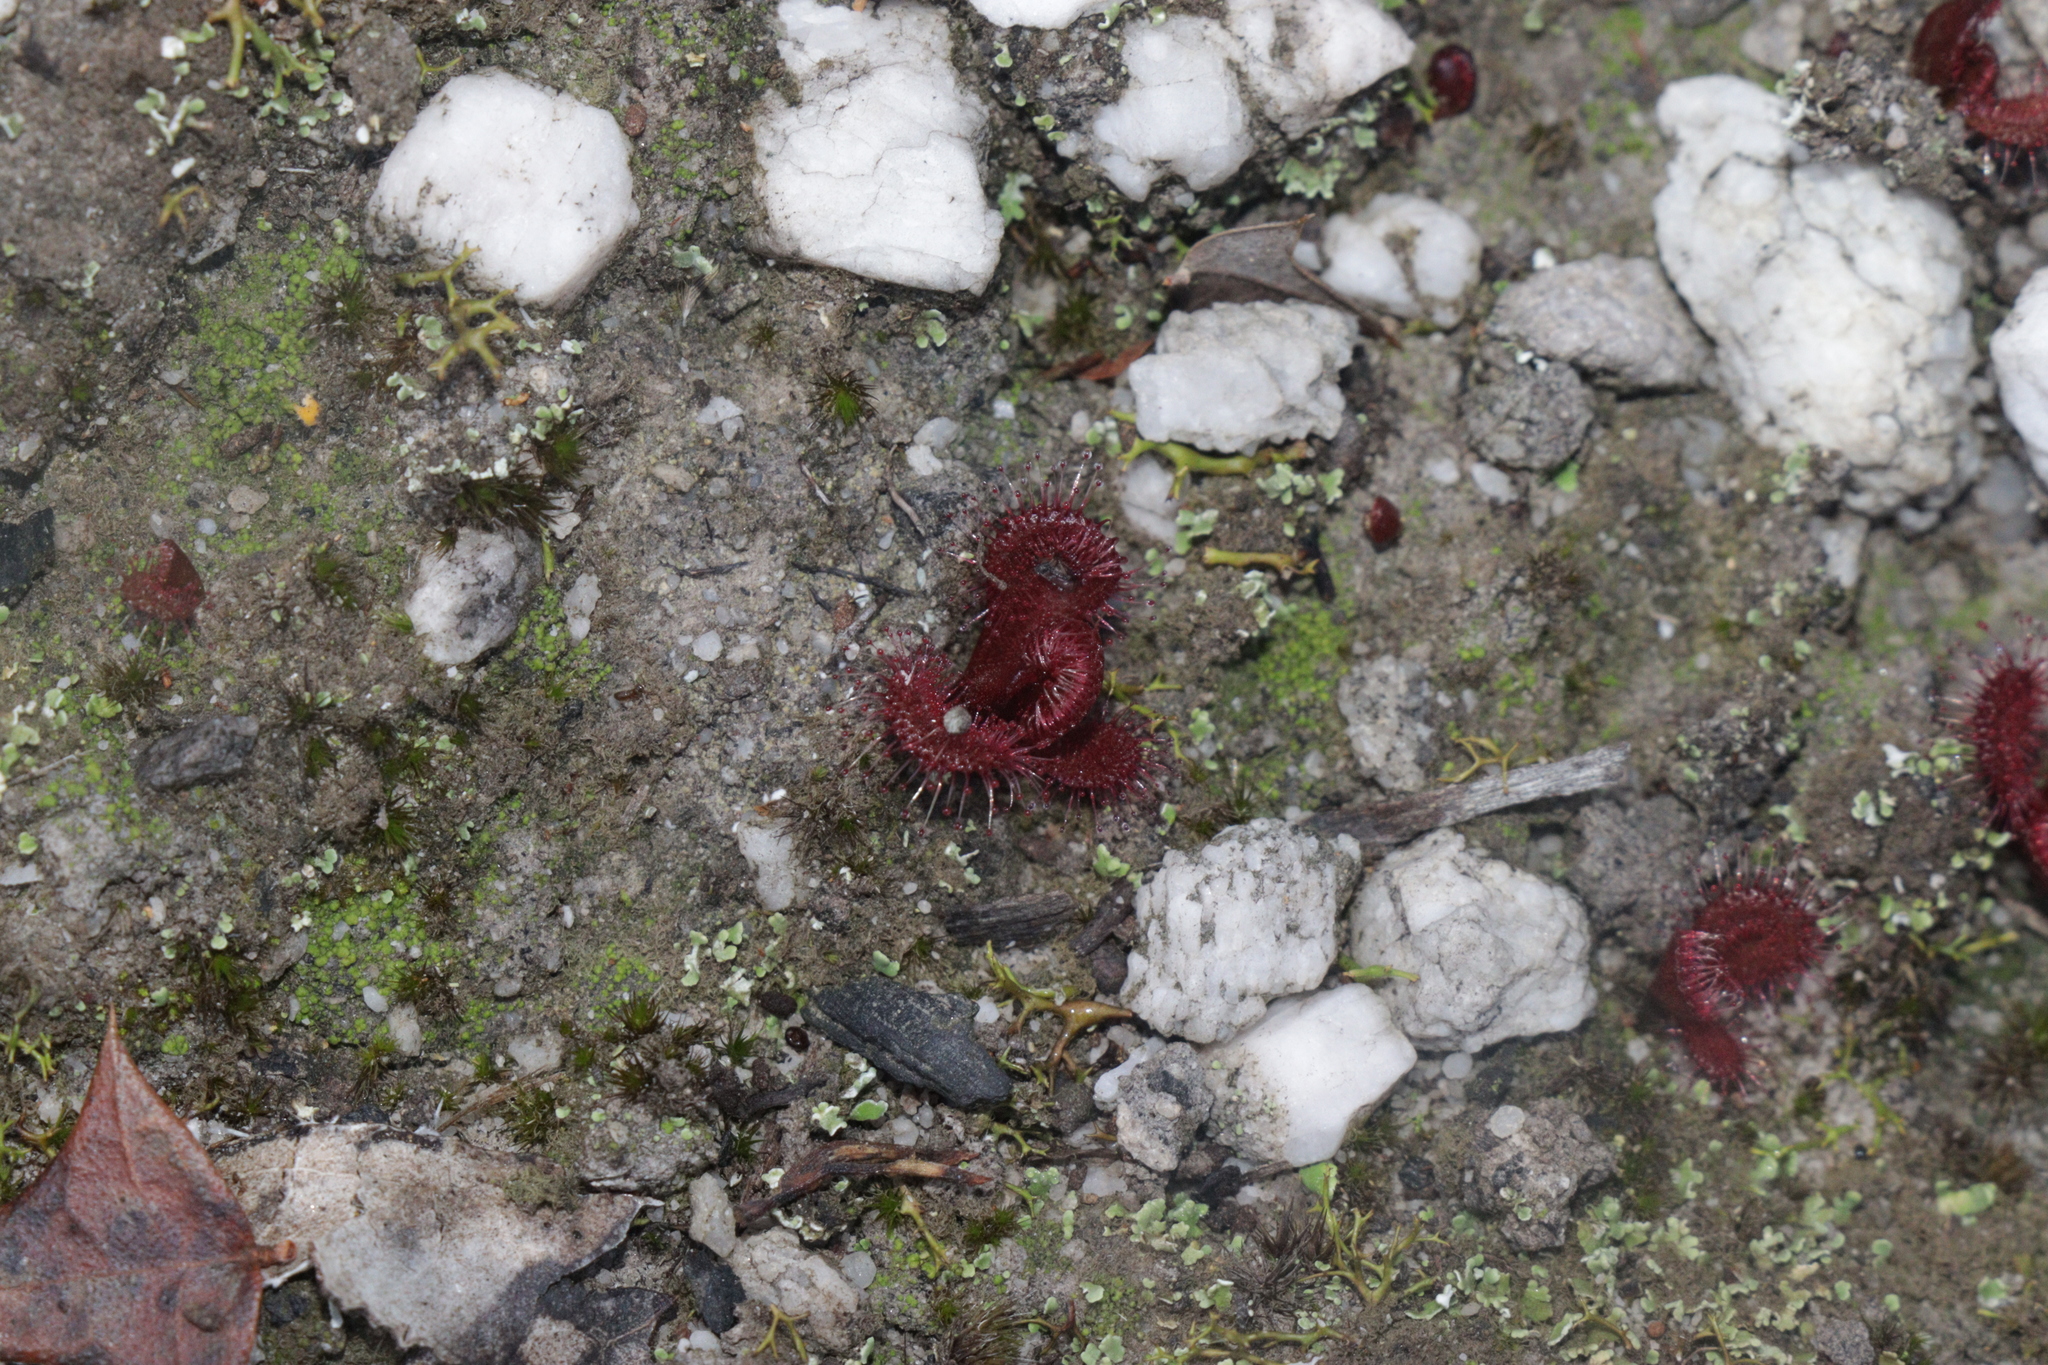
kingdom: Plantae
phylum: Tracheophyta
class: Magnoliopsida
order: Caryophyllales
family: Droseraceae
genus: Drosera
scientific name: Drosera aberrans
